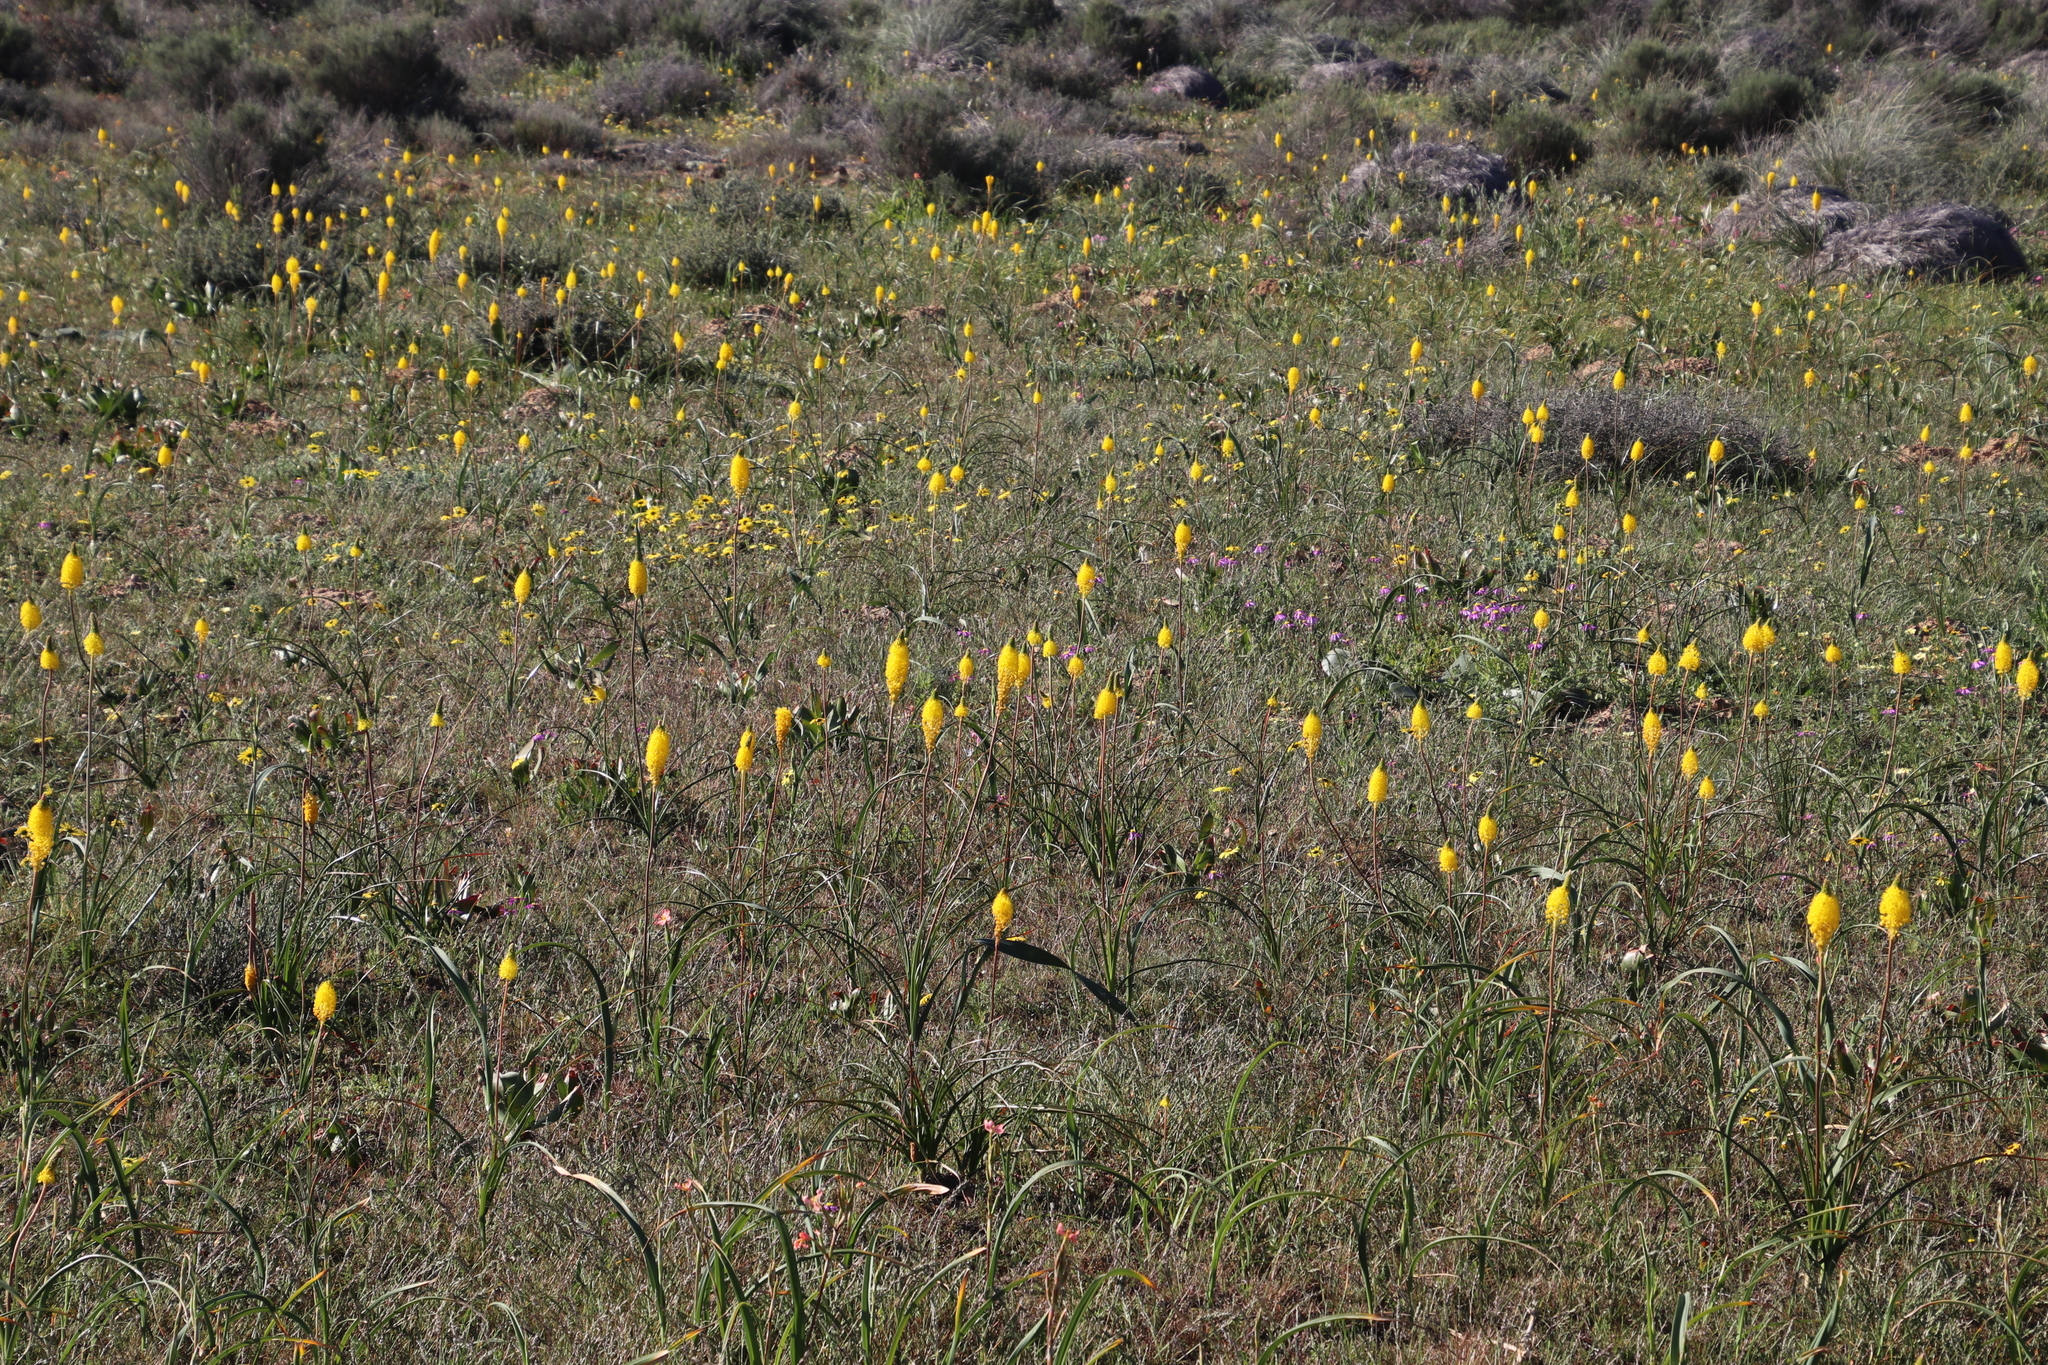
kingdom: Plantae
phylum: Tracheophyta
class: Liliopsida
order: Asparagales
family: Asphodelaceae
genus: Bulbinella
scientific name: Bulbinella nutans
